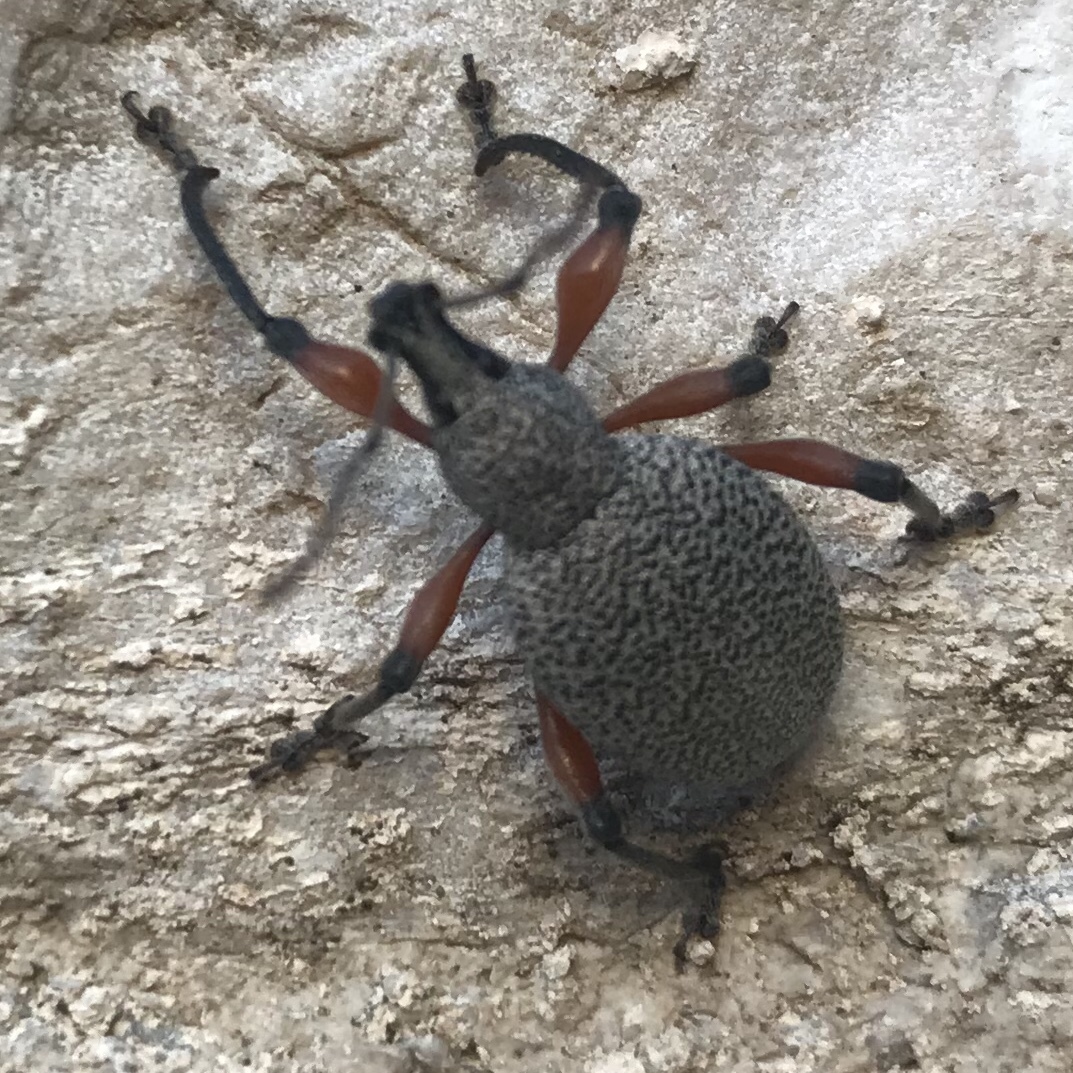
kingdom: Animalia
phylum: Arthropoda
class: Insecta
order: Coleoptera
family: Curculionidae
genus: Otiorhynchus
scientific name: Otiorhynchus rhacusensis
